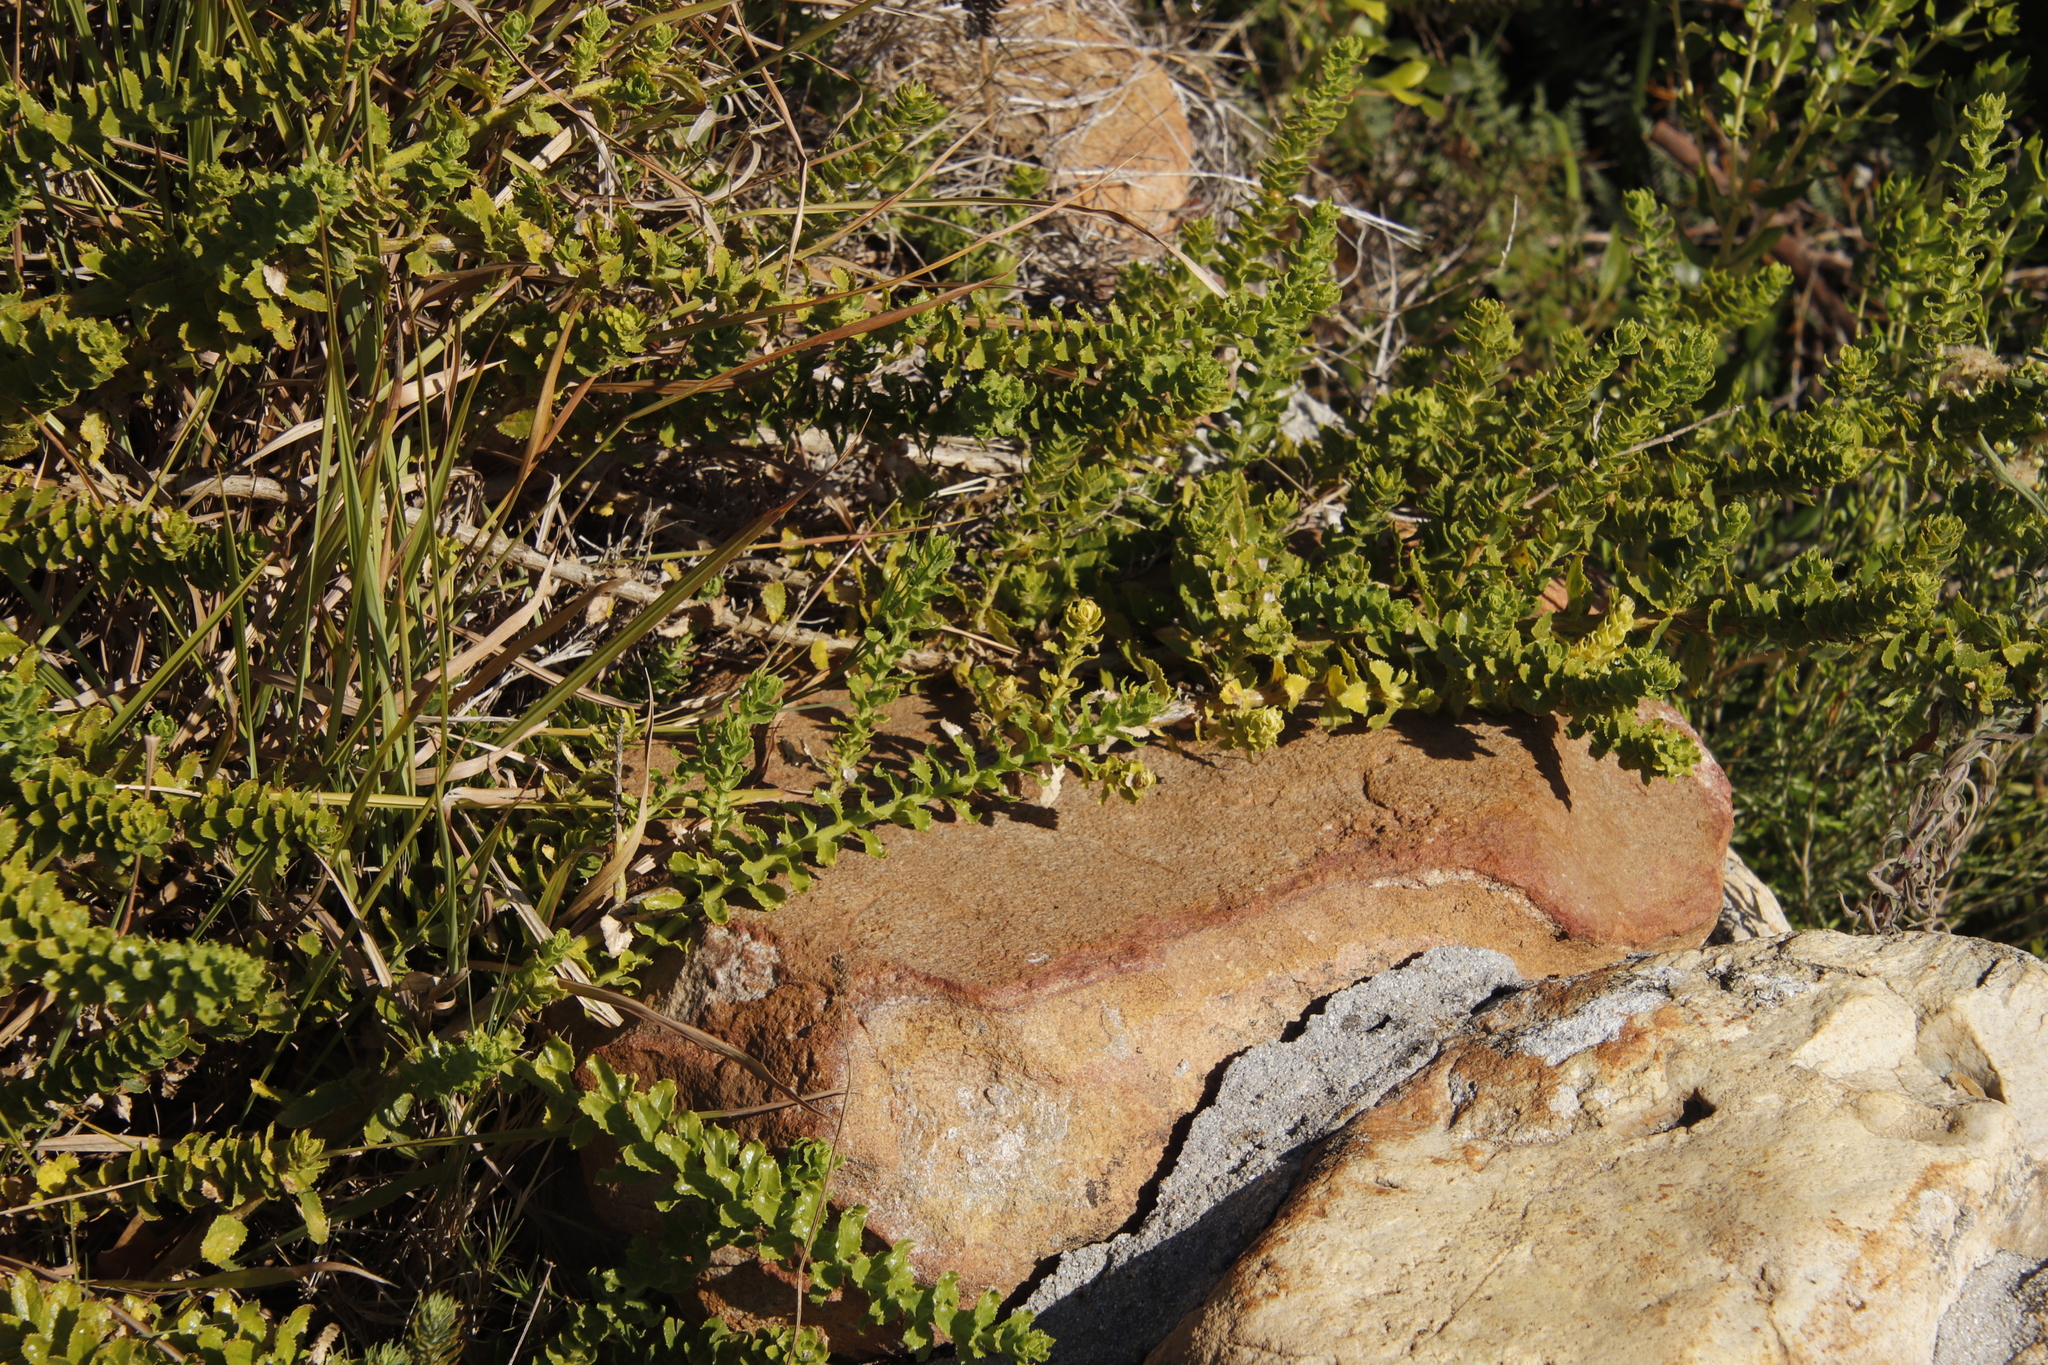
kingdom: Plantae
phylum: Tracheophyta
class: Magnoliopsida
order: Lamiales
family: Scrophulariaceae
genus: Oftia
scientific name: Oftia africana
